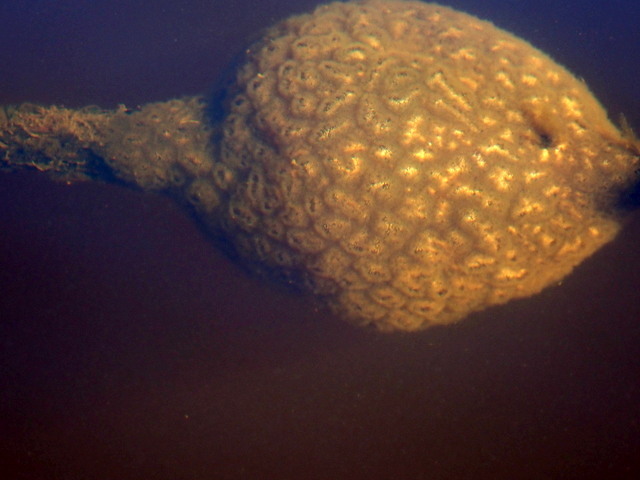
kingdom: Animalia
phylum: Bryozoa
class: Phylactolaemata
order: Plumatellida
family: Pectinatellidae
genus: Pectinatella
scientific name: Pectinatella magnifica
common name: Magnificent bryozoan
